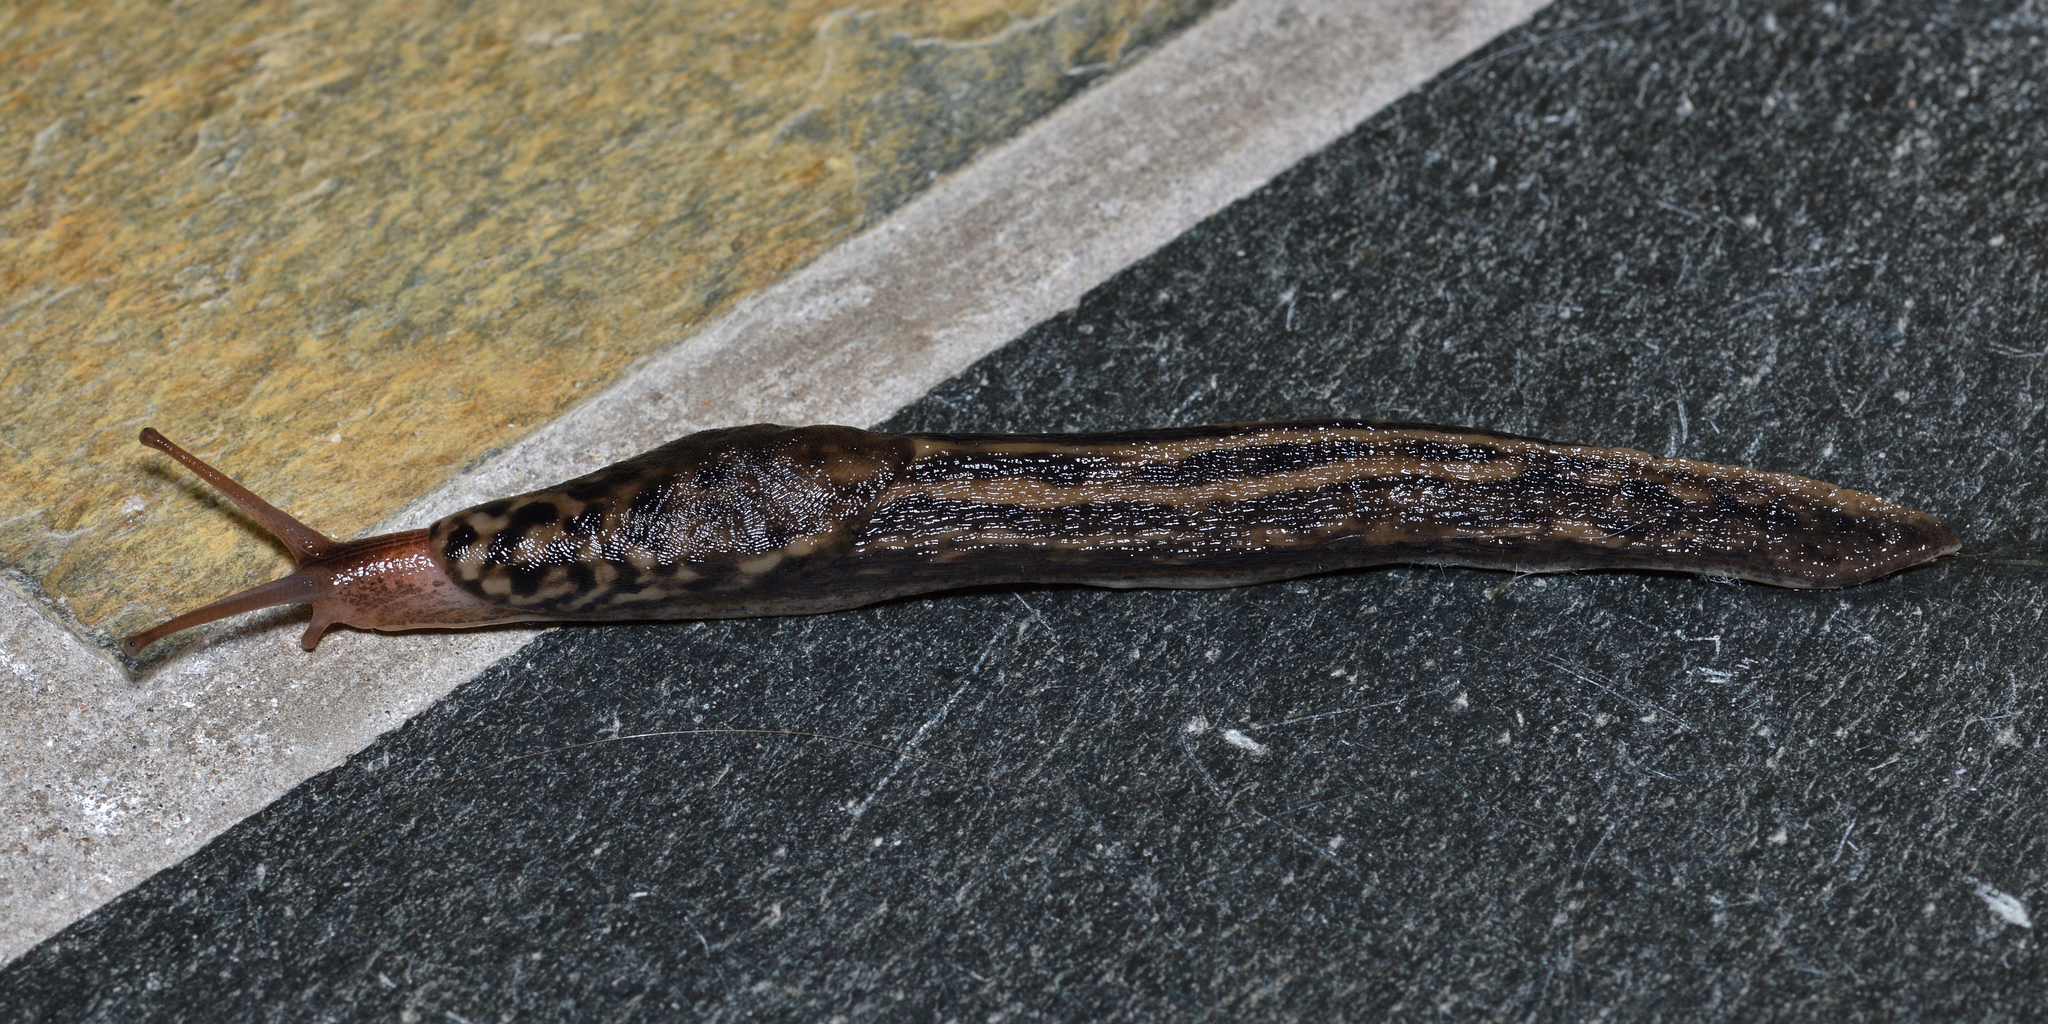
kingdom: Animalia
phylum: Mollusca
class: Gastropoda
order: Stylommatophora
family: Limacidae
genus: Limax
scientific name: Limax maximus
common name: Great grey slug
